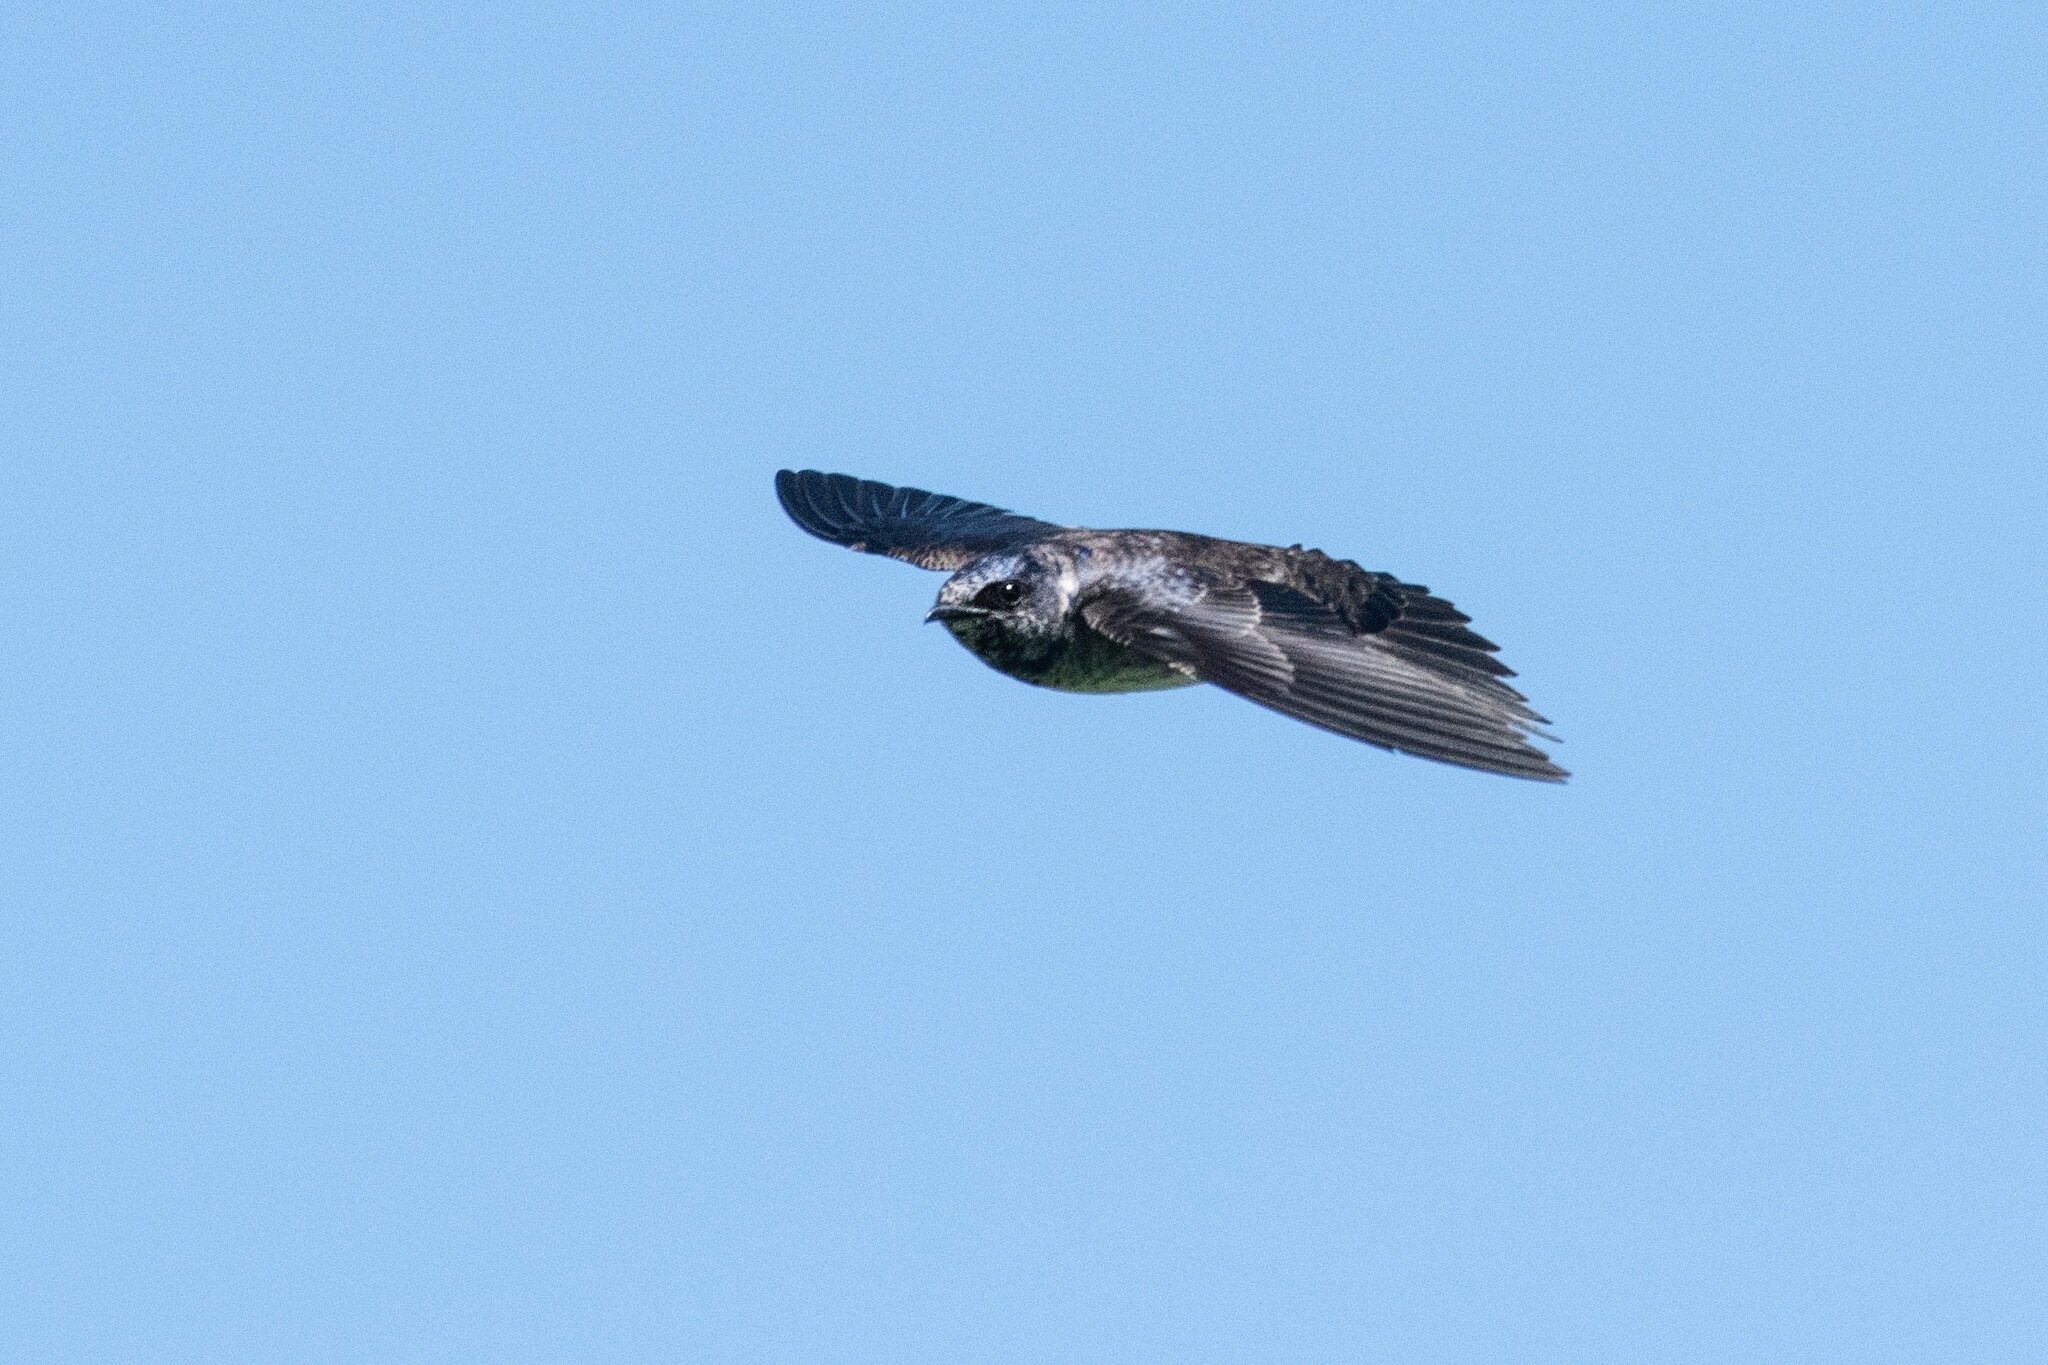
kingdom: Animalia
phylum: Chordata
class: Aves
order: Passeriformes
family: Hirundinidae
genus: Progne
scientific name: Progne subis
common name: Purple martin
